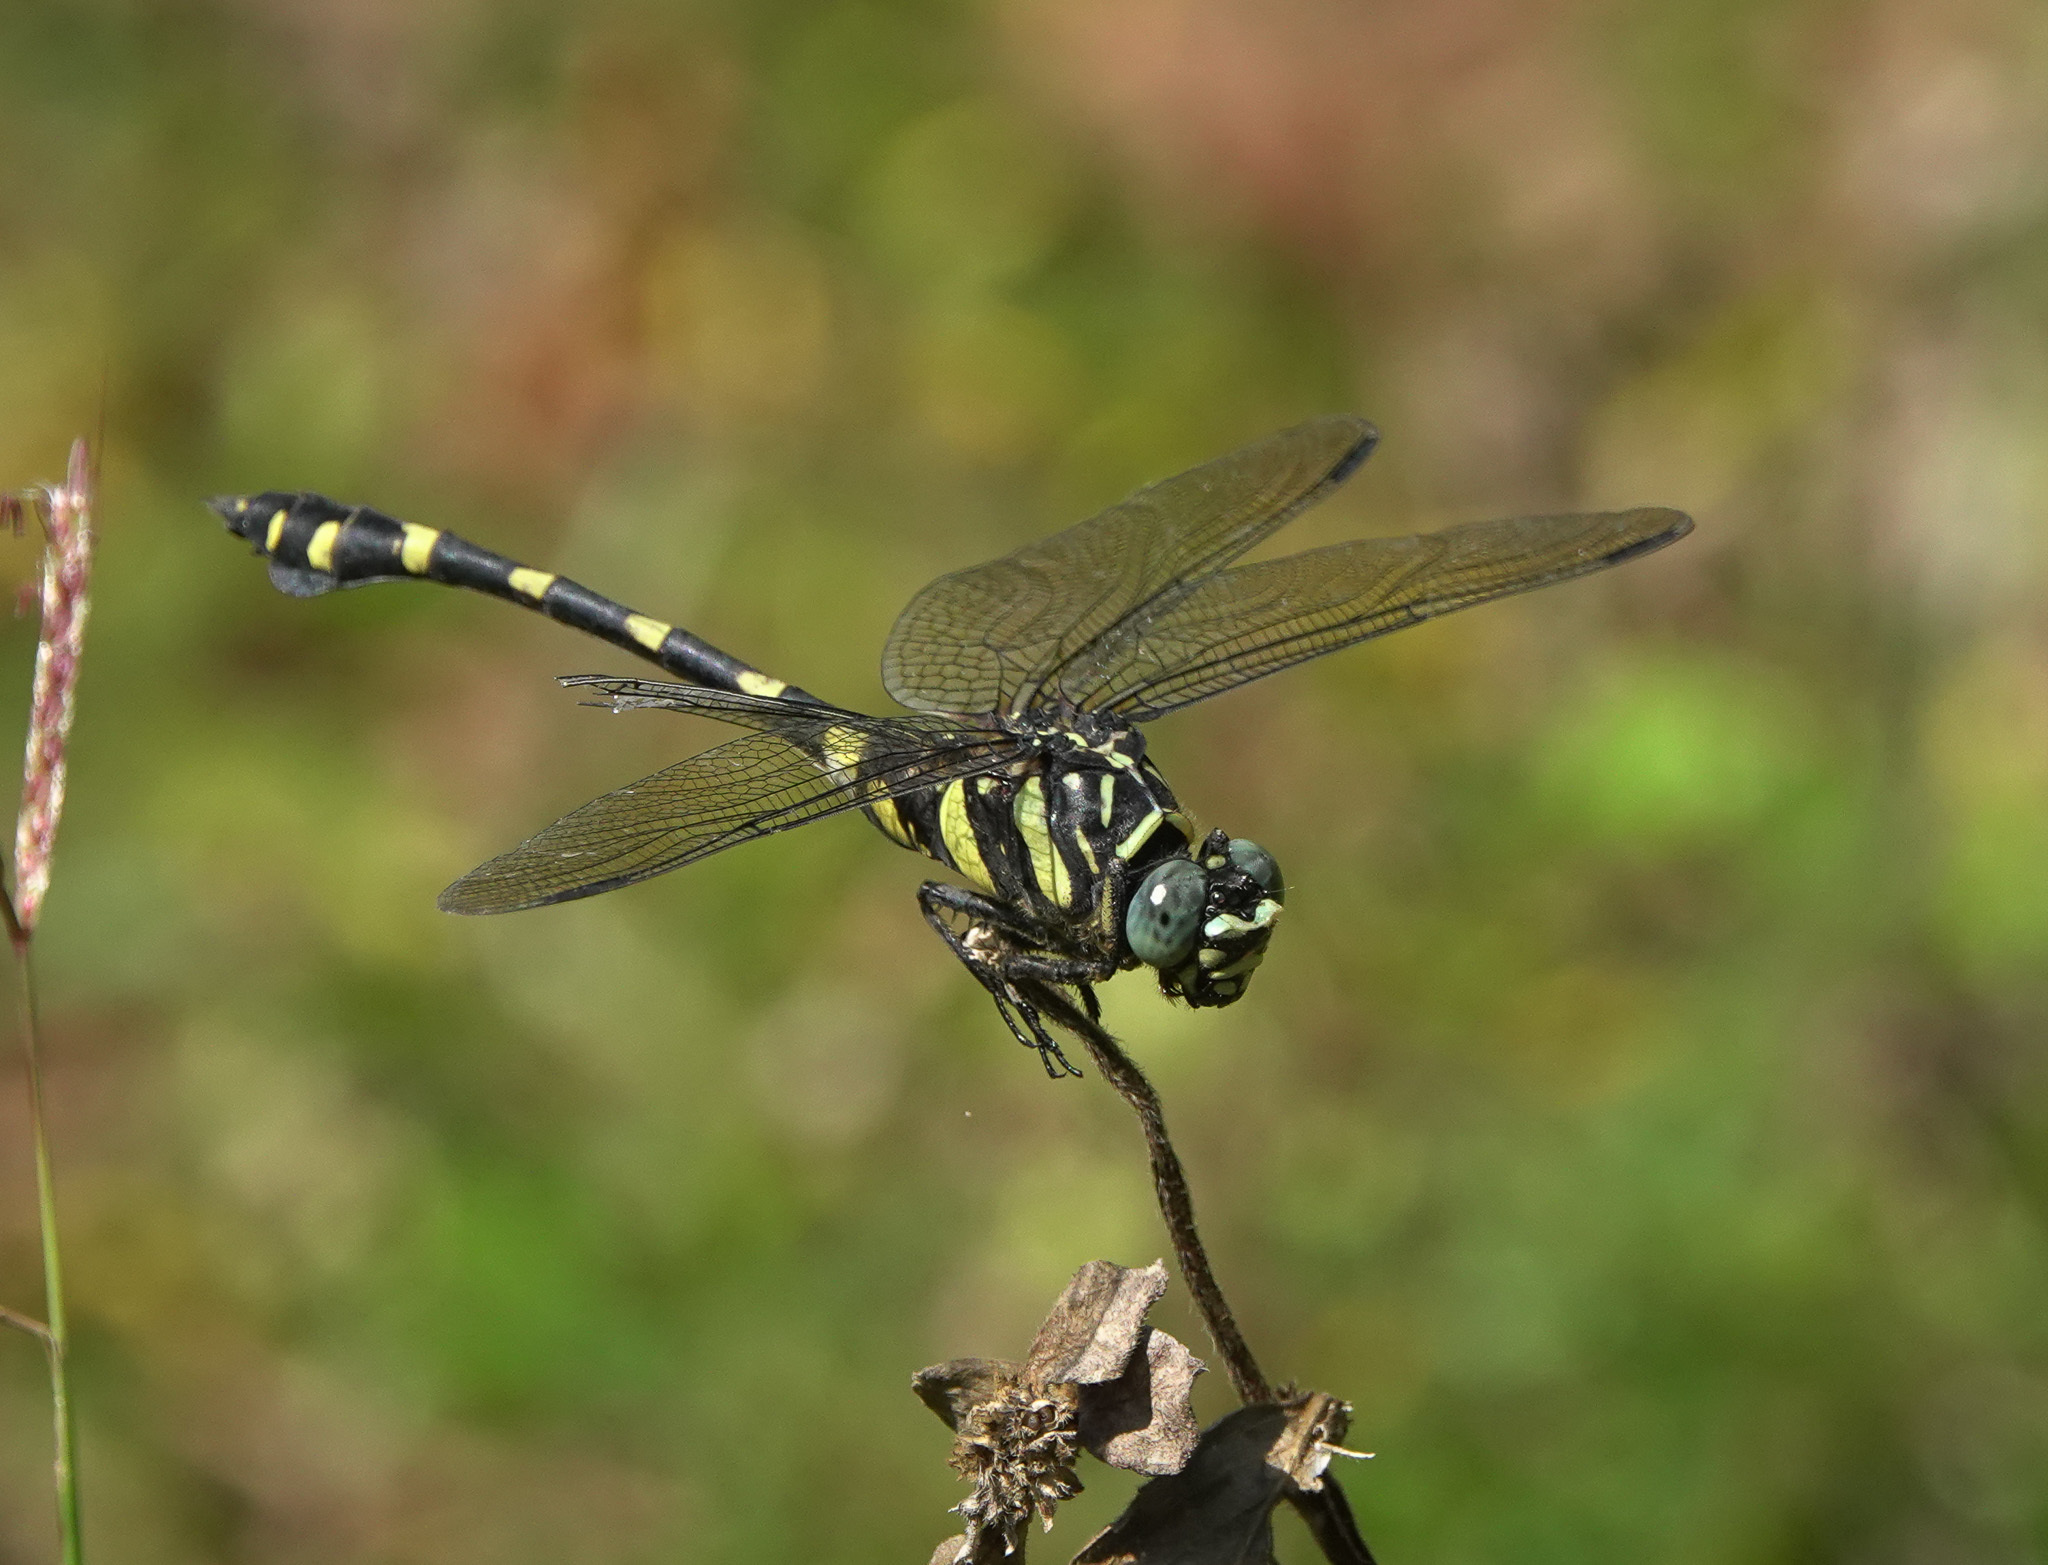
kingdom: Animalia
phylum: Arthropoda
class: Insecta
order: Odonata
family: Gomphidae
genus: Ictinogomphus
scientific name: Ictinogomphus rapax
